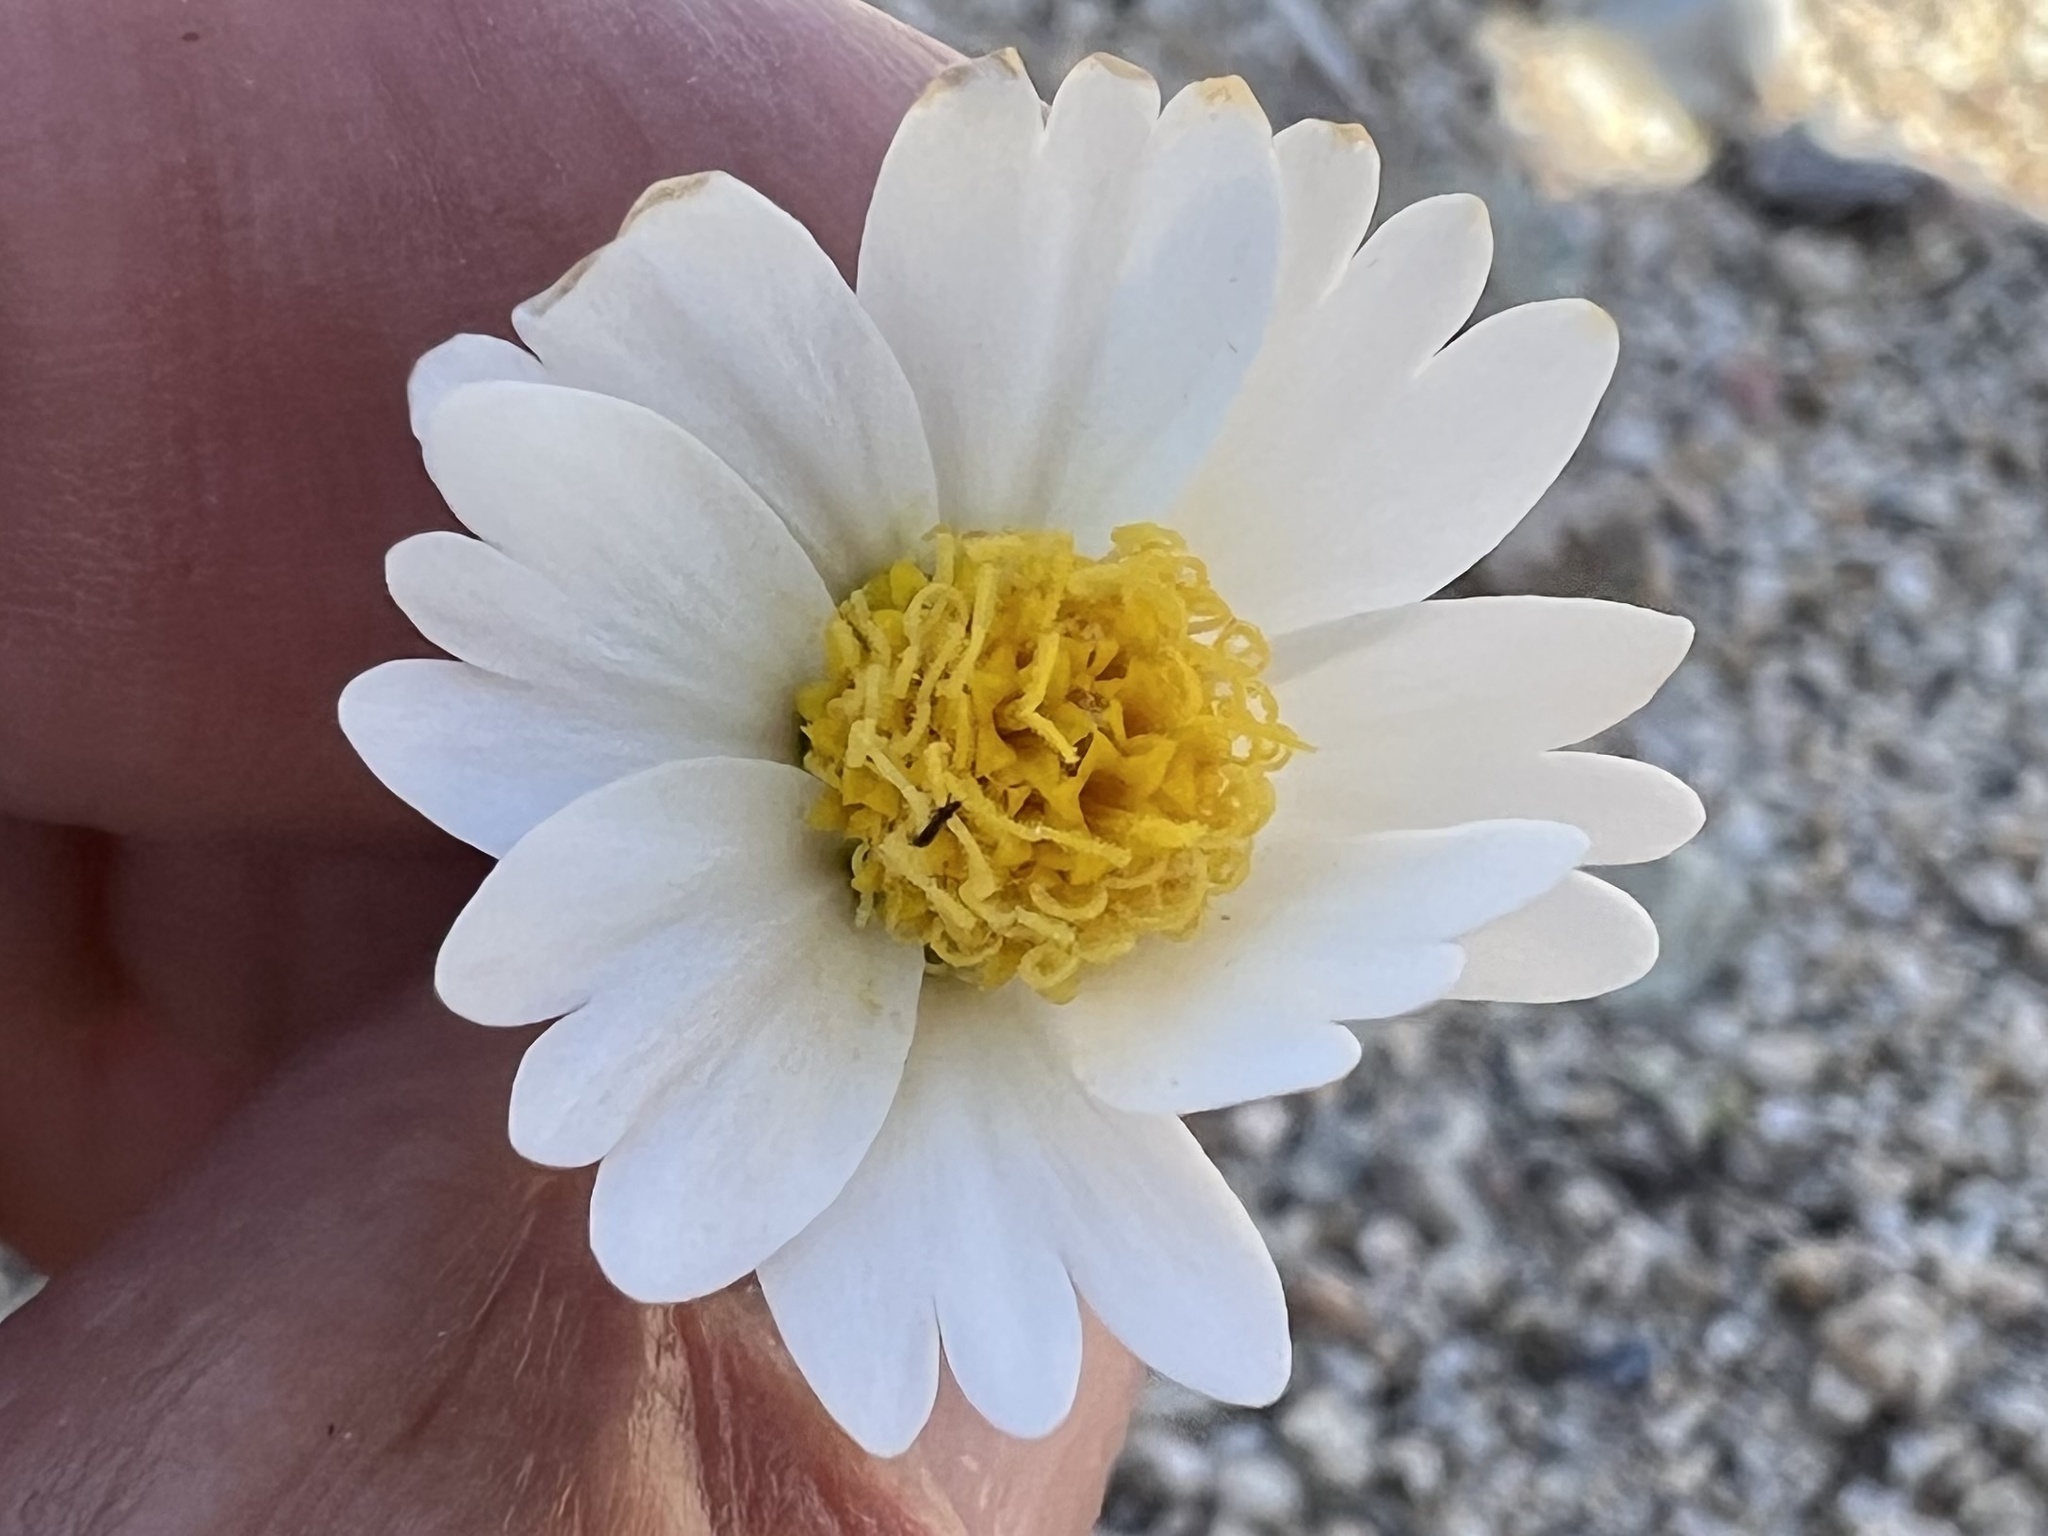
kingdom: Plantae
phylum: Tracheophyta
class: Magnoliopsida
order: Asterales
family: Asteraceae
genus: Layia
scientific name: Layia glandulosa
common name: White layia
